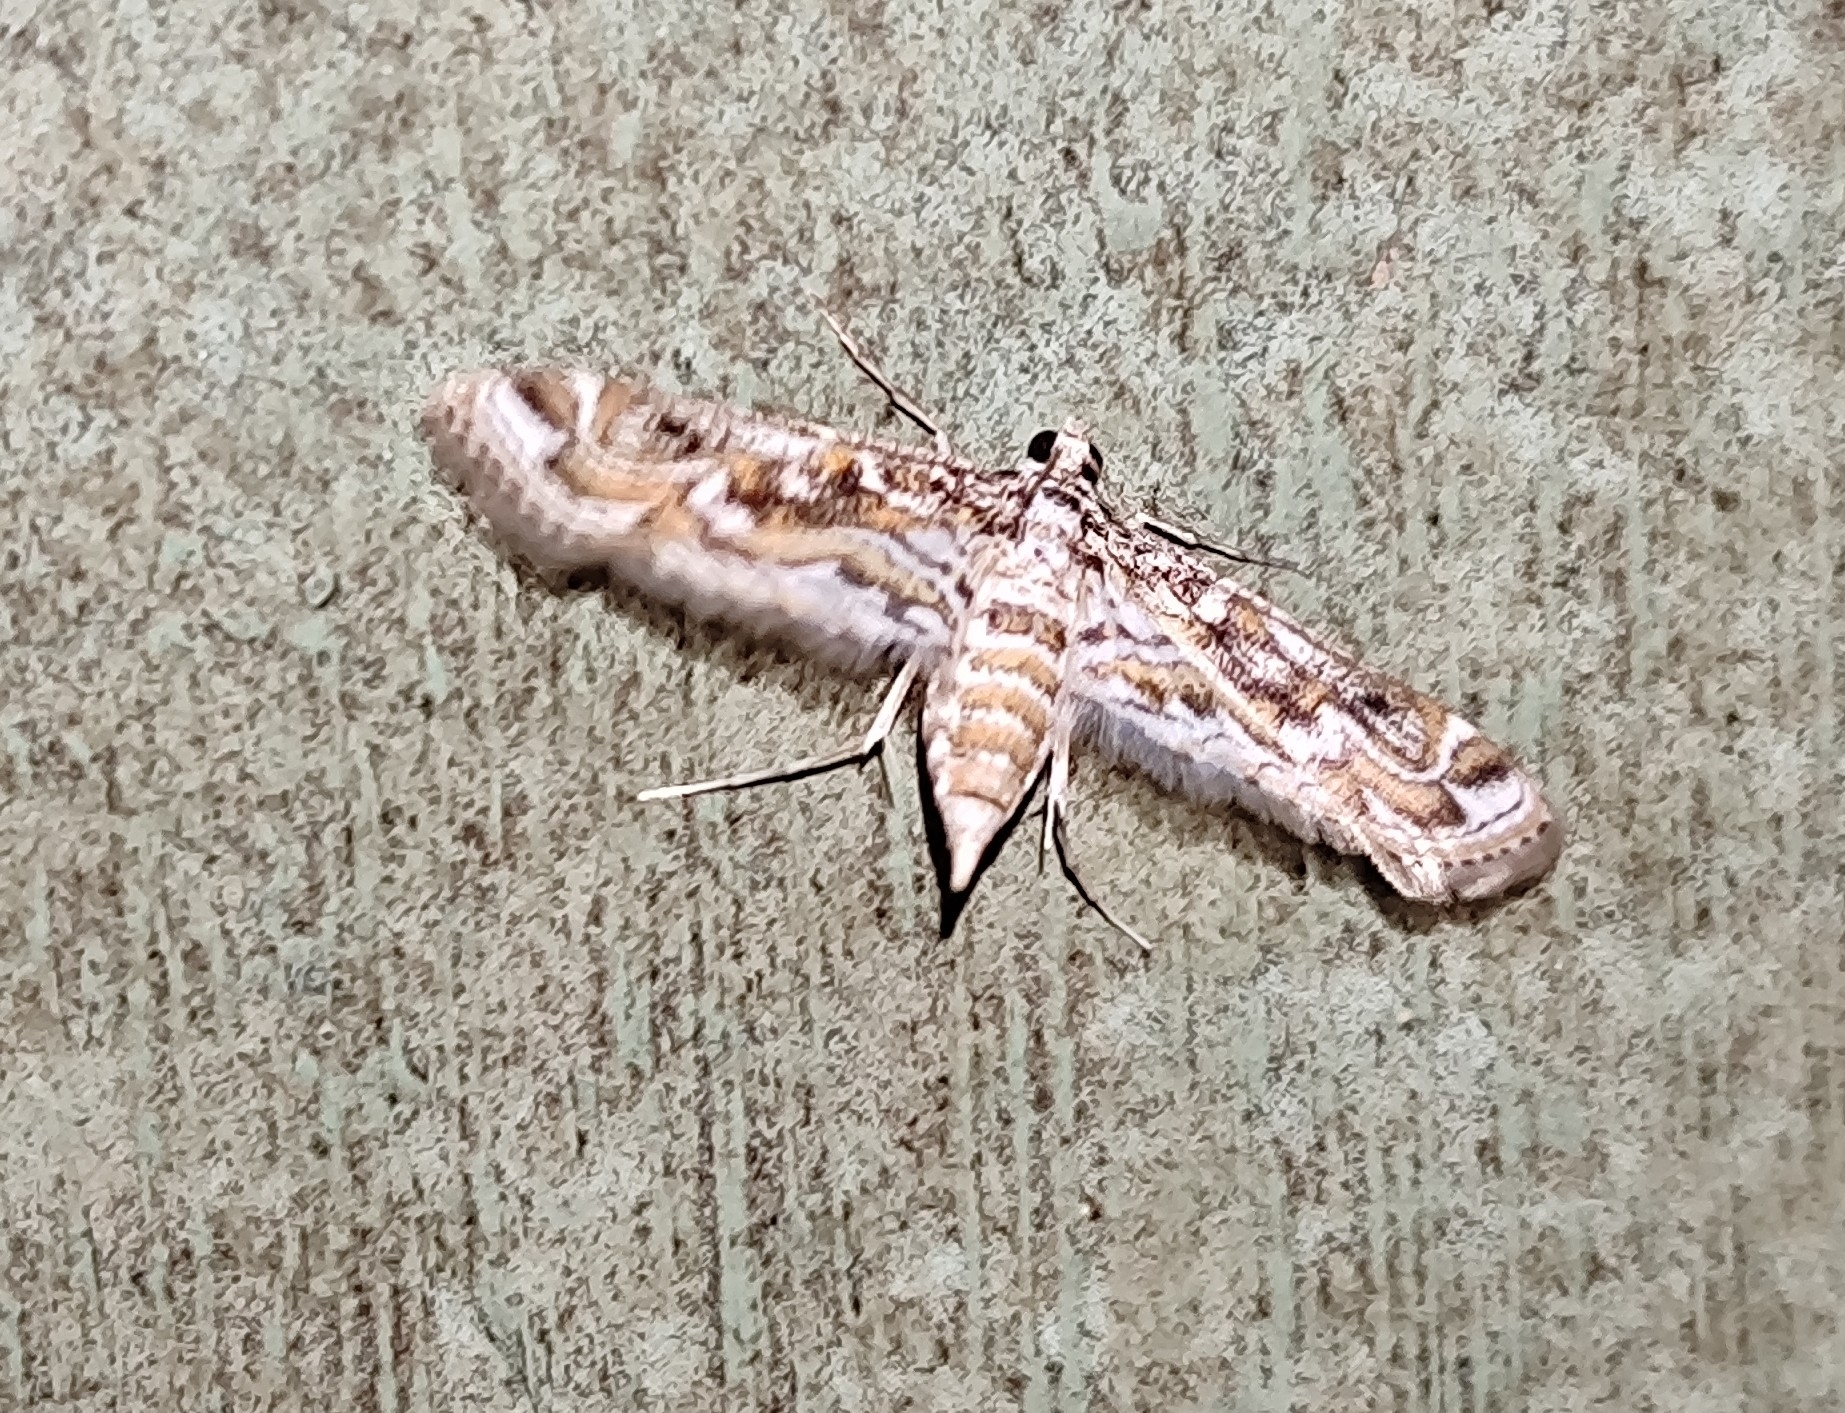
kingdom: Animalia
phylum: Arthropoda
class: Insecta
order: Lepidoptera
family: Crambidae
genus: Parapoynx
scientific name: Parapoynx diminutalis
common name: Hydrilla leafcutter
